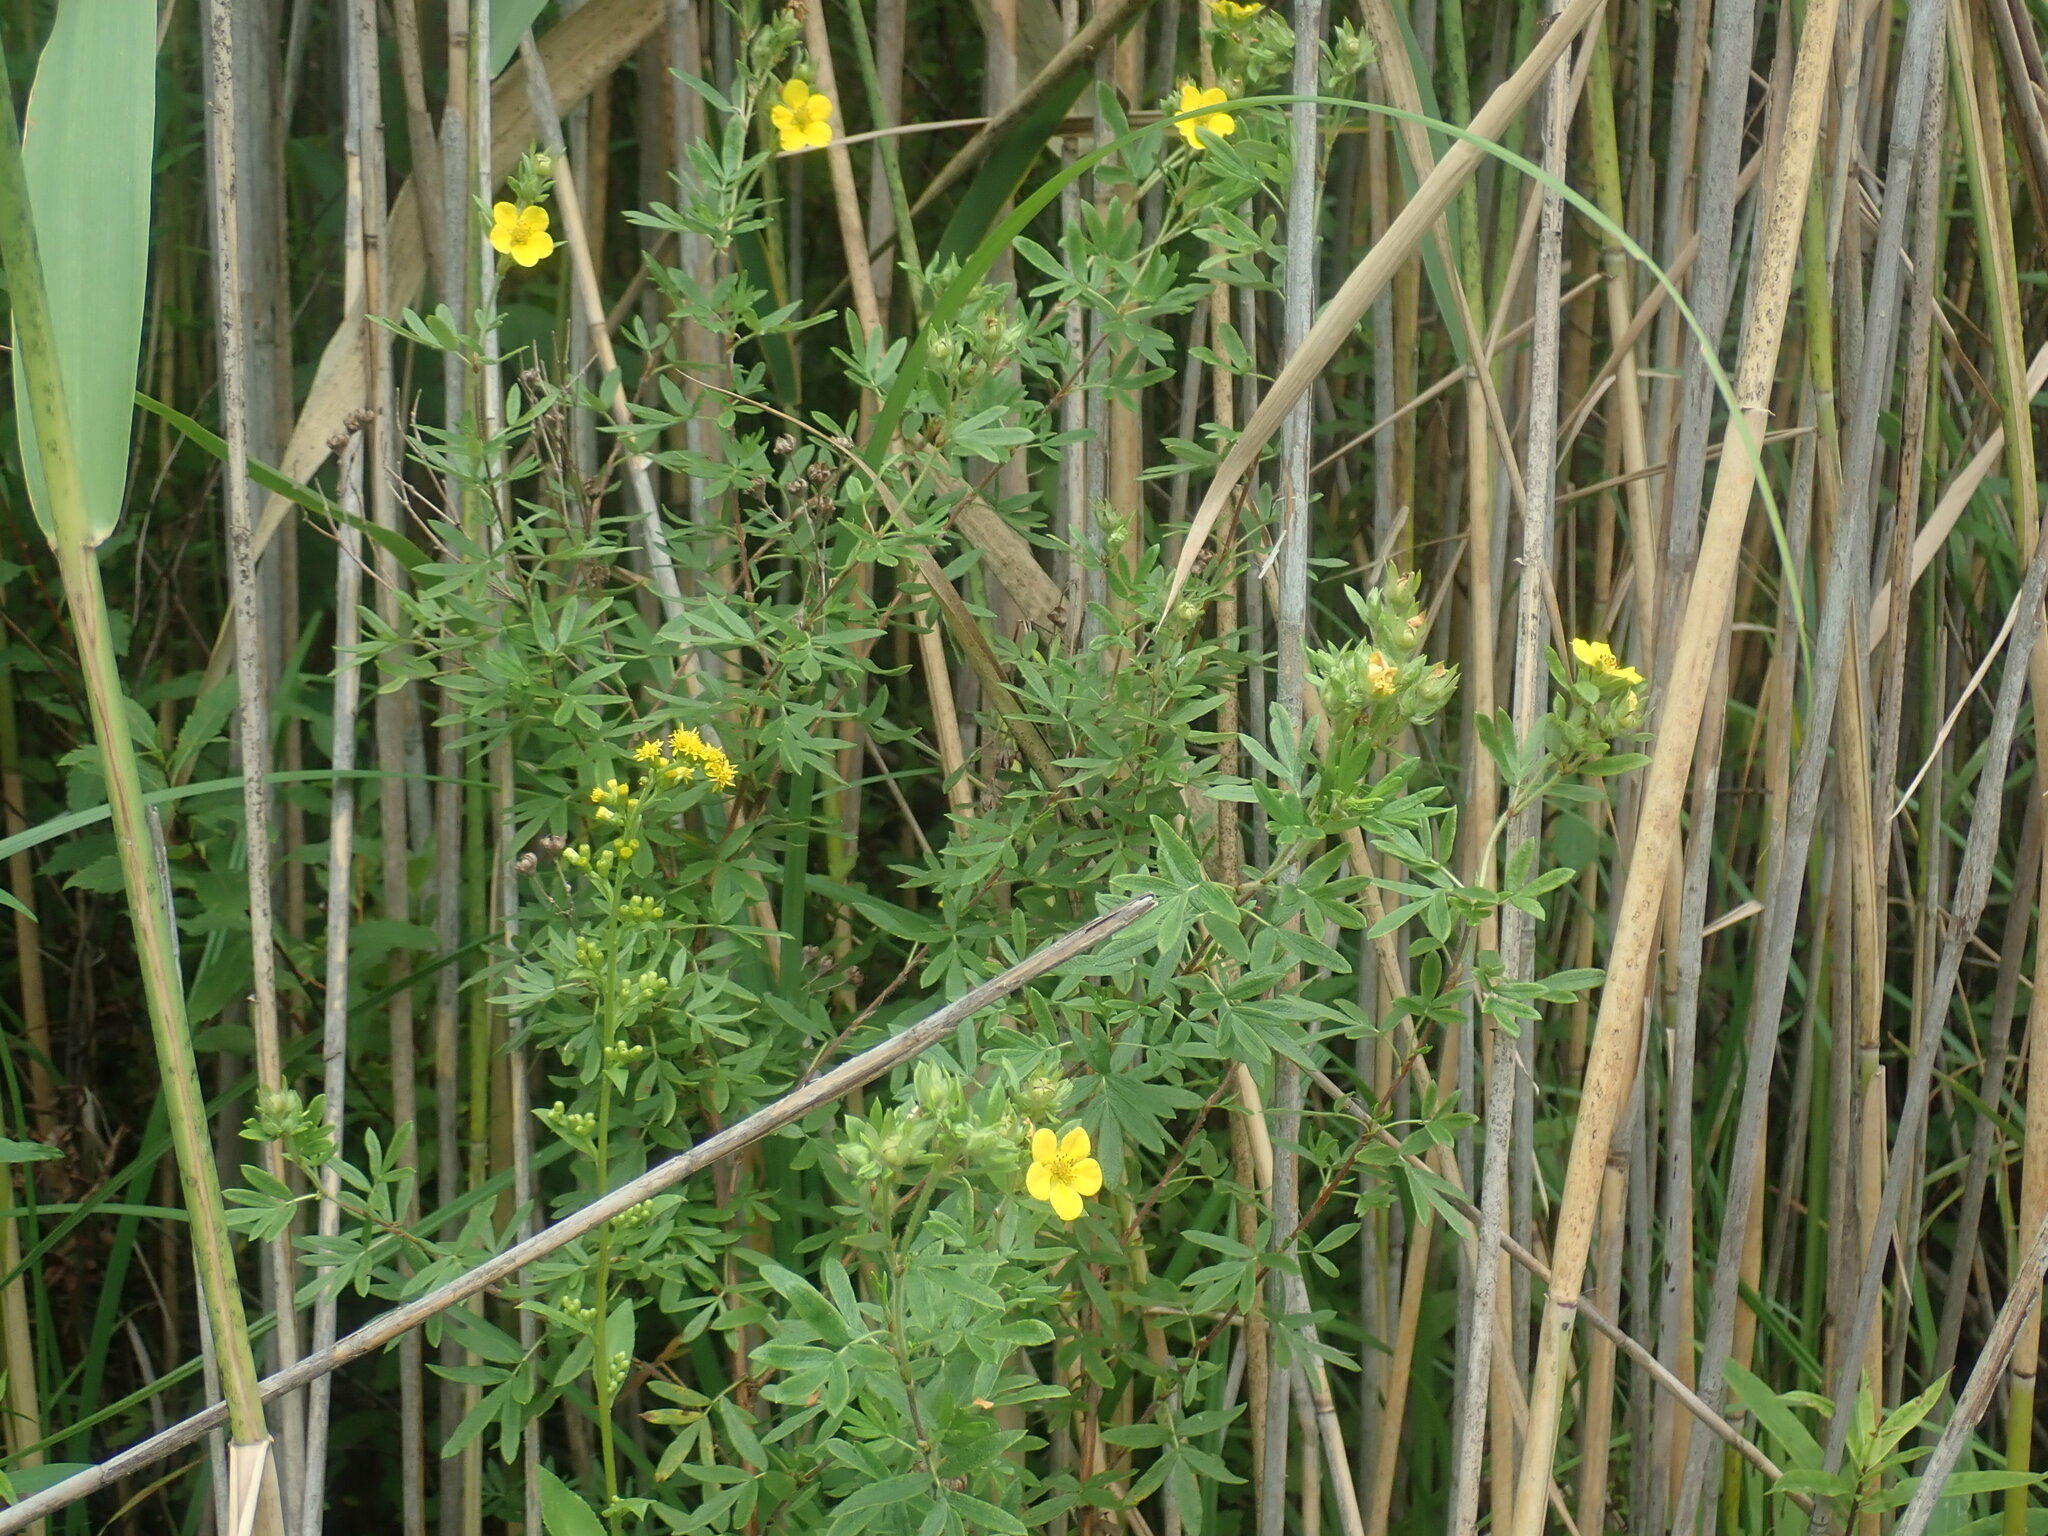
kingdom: Plantae
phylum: Tracheophyta
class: Magnoliopsida
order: Rosales
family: Rosaceae
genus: Dasiphora
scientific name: Dasiphora fruticosa
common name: Shrubby cinquefoil
